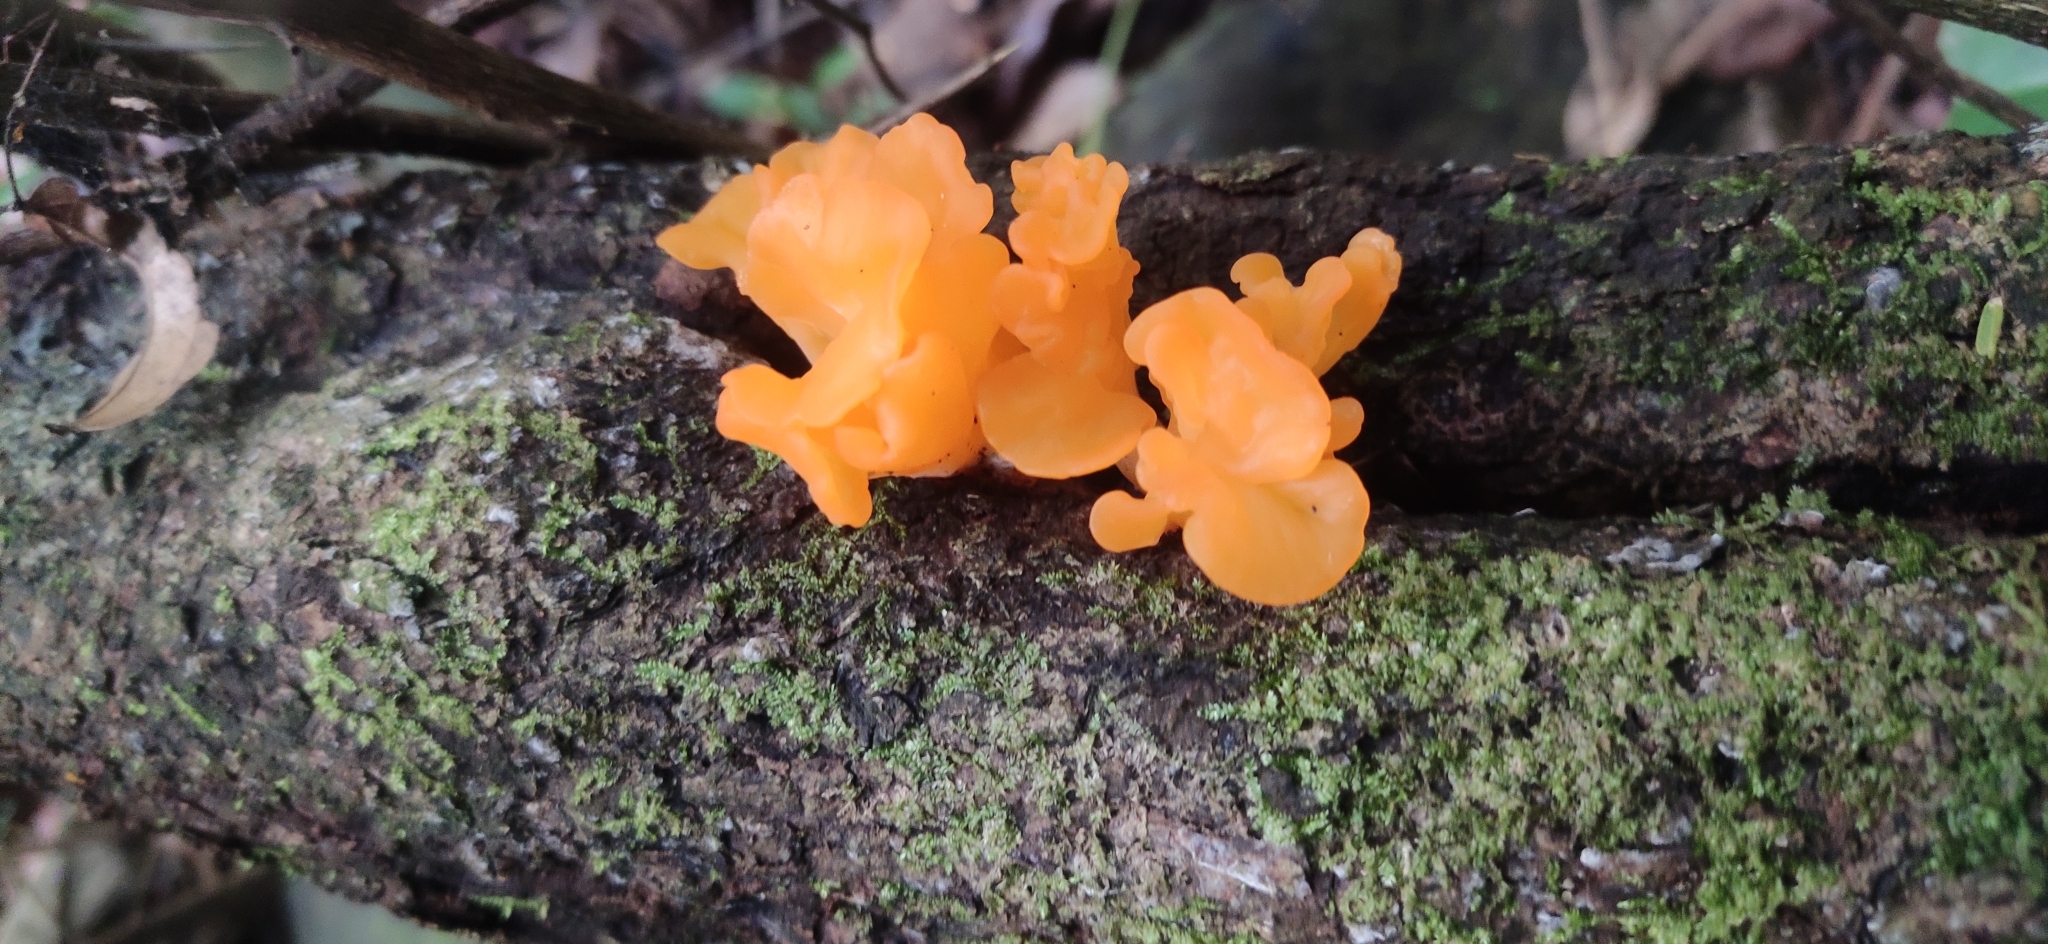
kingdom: Fungi
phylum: Basidiomycota
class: Dacrymycetes
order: Dacrymycetales
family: Dacrymycetaceae
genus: Dacrymyces
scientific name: Dacrymyces spathularius
